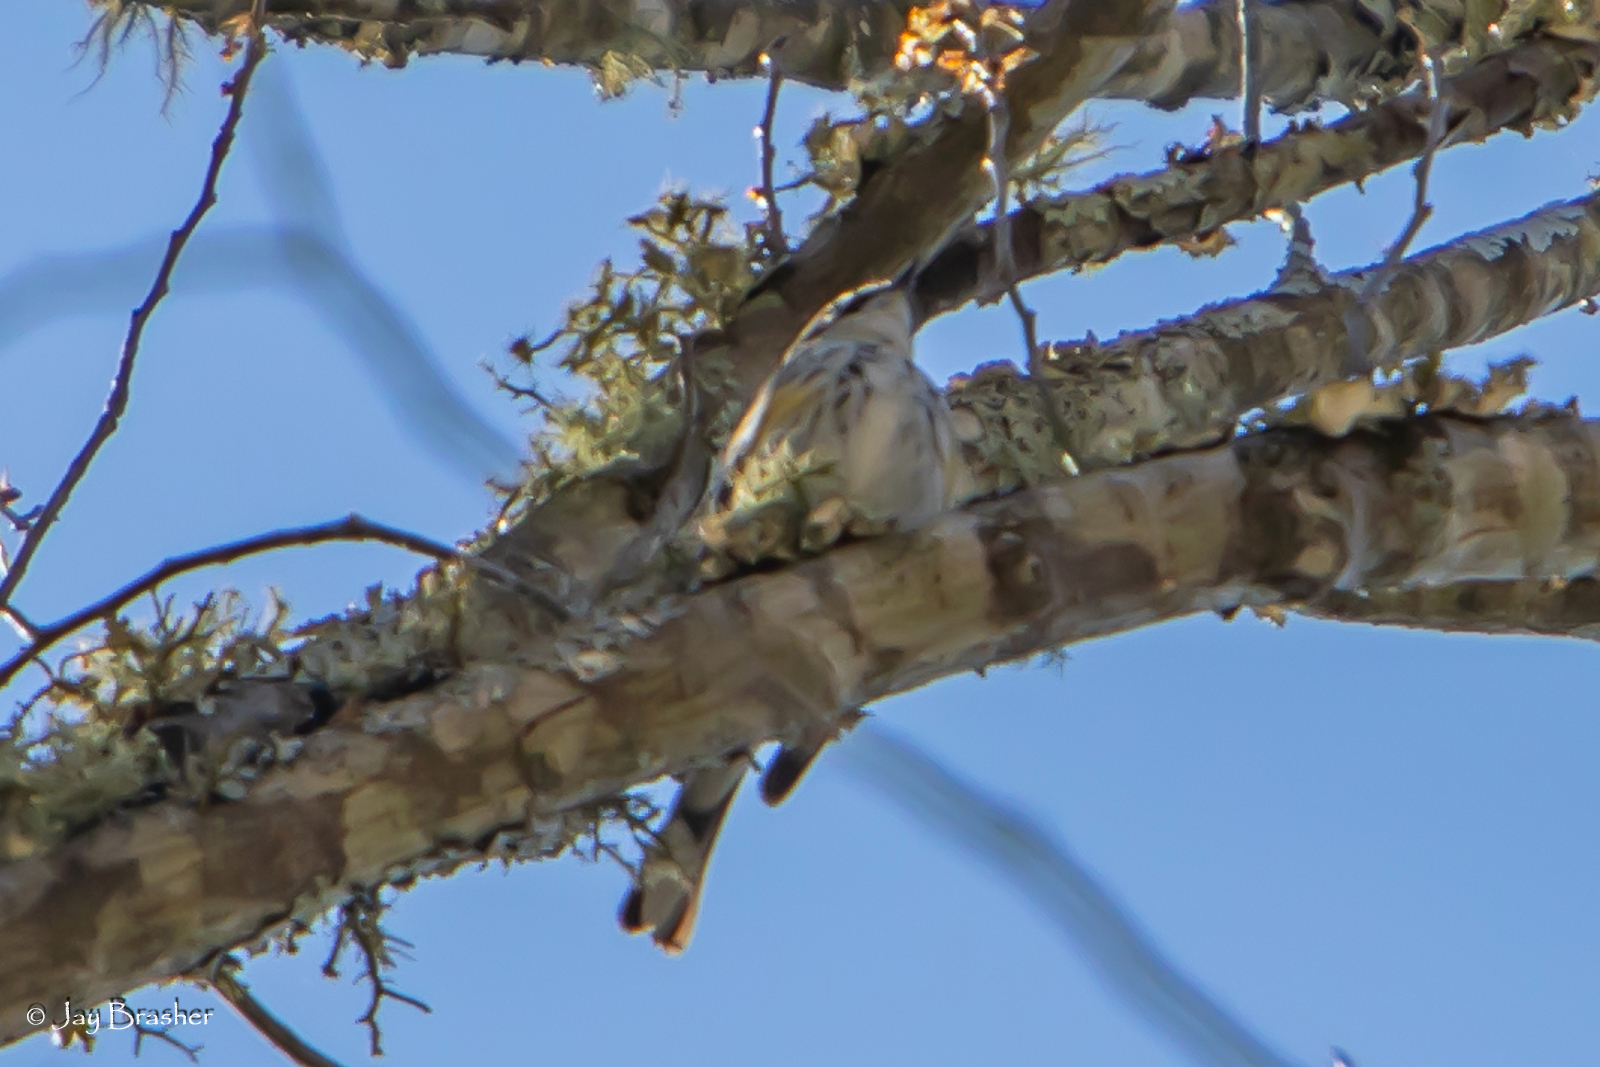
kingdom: Animalia
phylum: Chordata
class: Aves
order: Passeriformes
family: Parulidae
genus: Setophaga
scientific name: Setophaga coronata
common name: Myrtle warbler
